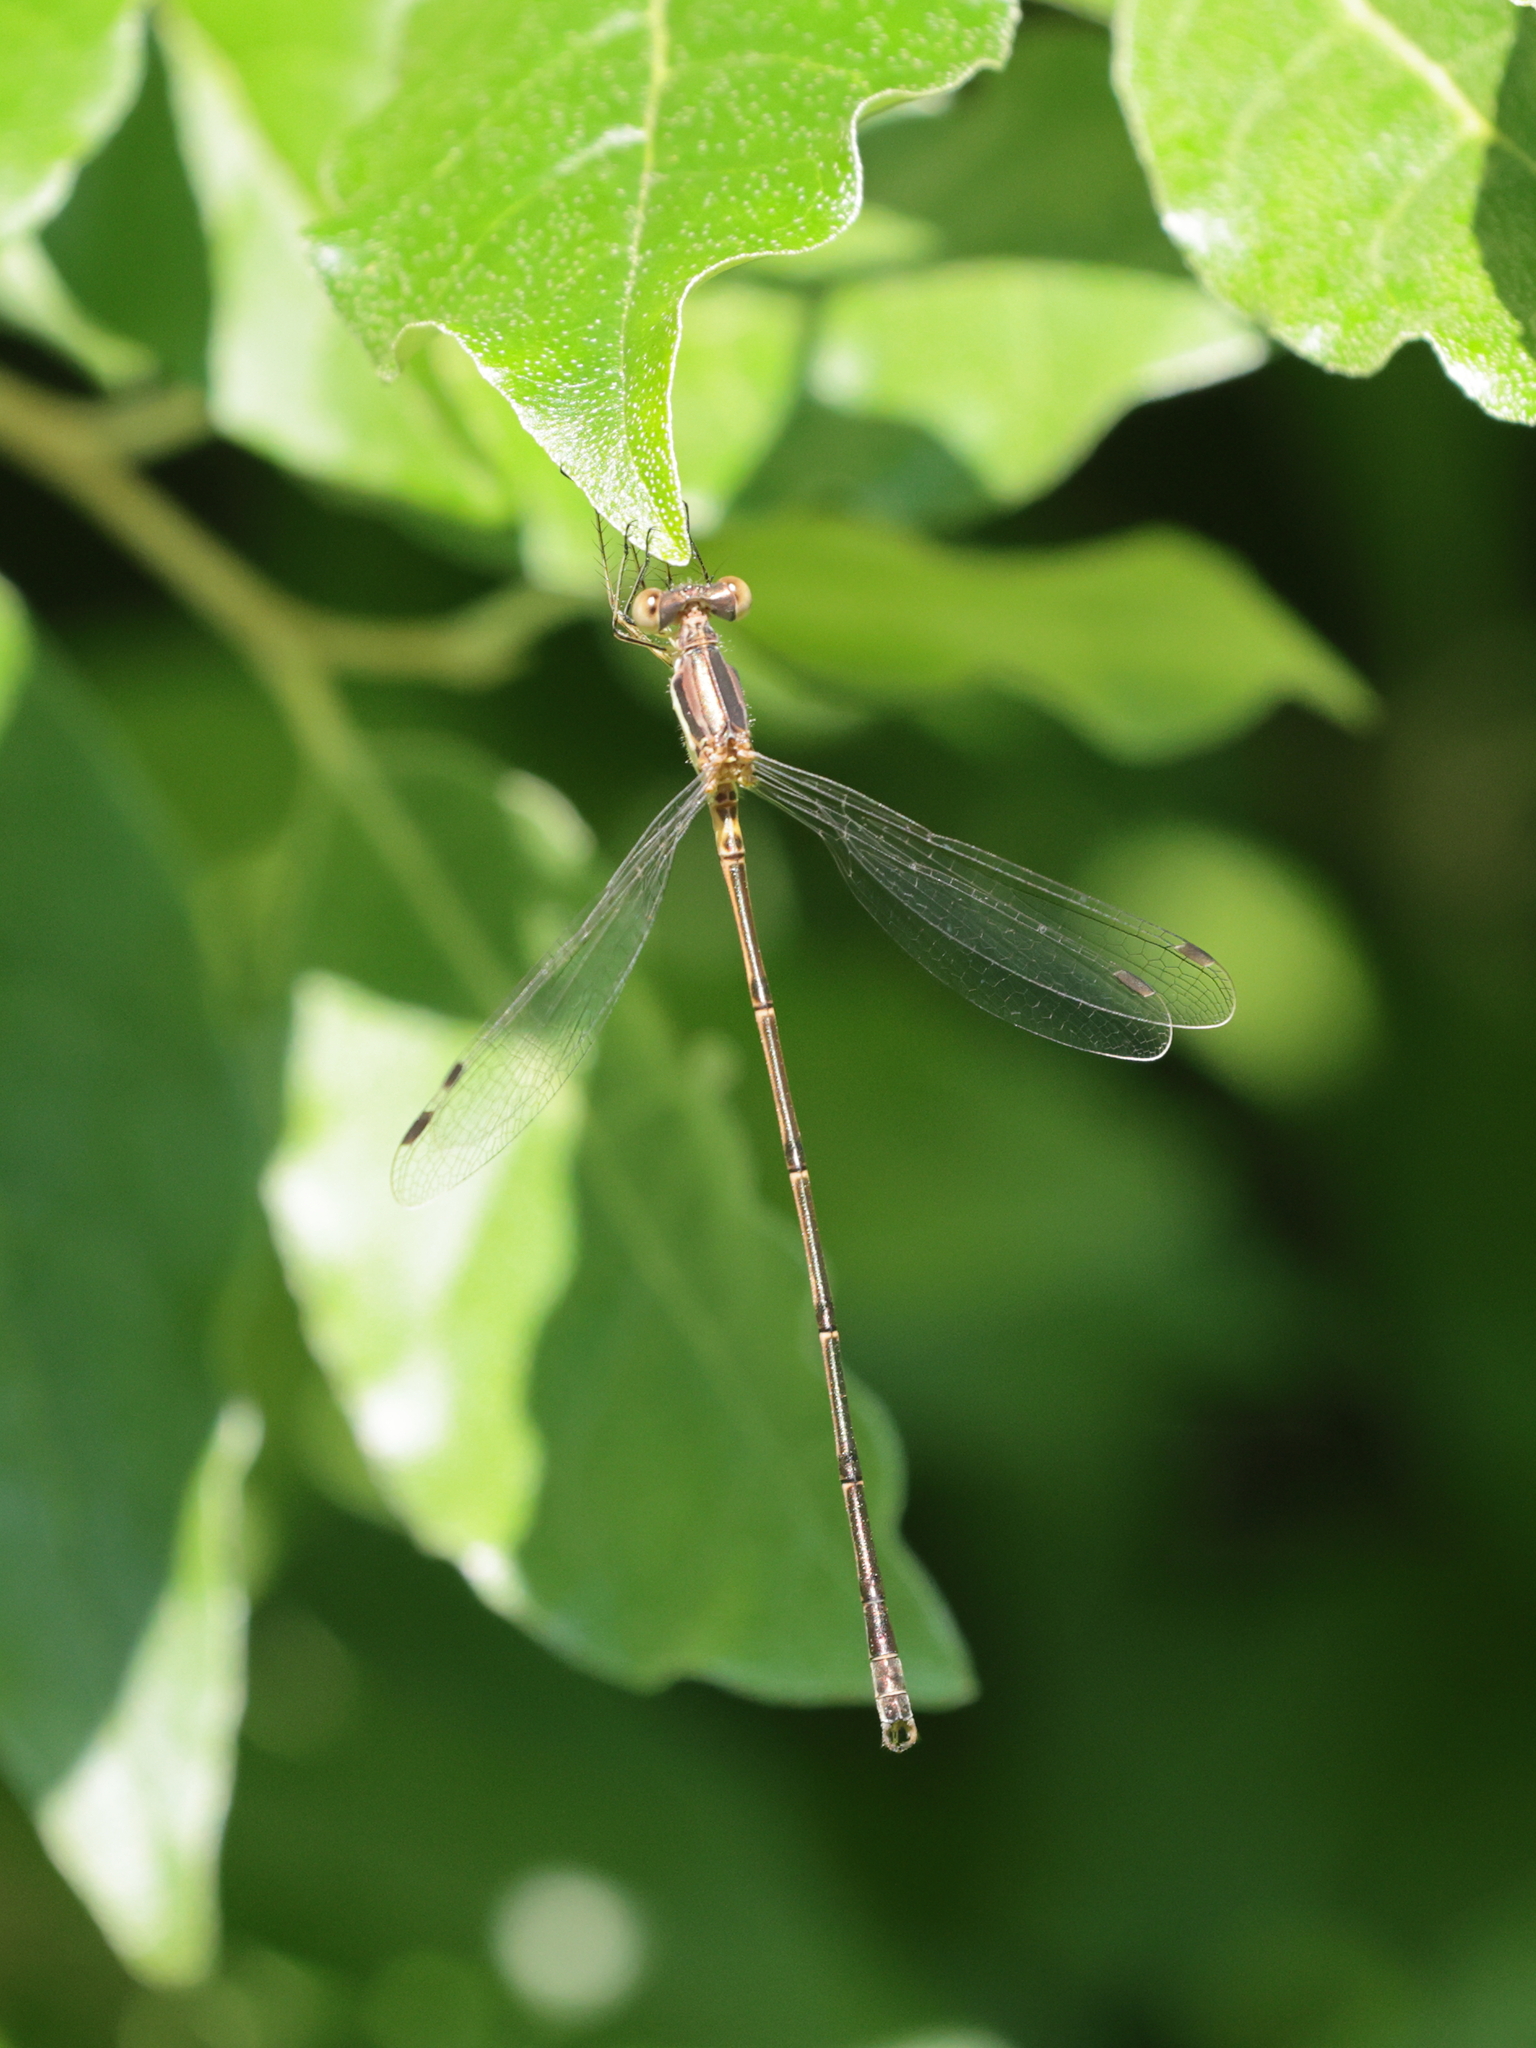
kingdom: Animalia
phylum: Arthropoda
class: Insecta
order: Odonata
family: Lestidae
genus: Lestes
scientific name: Lestes rectangularis
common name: Slender spreadwing
